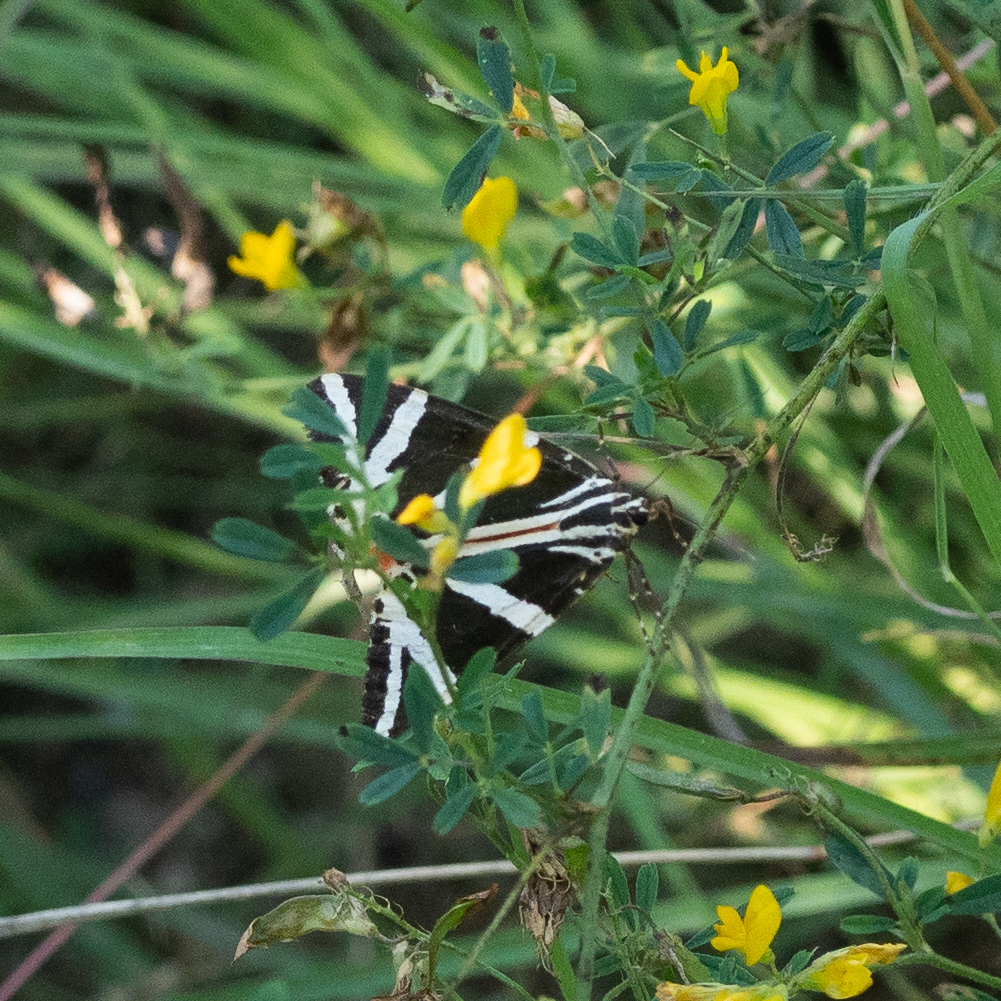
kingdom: Animalia
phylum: Arthropoda
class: Insecta
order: Lepidoptera
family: Erebidae
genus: Euplagia
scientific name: Euplagia quadripunctaria
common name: Jersey tiger
